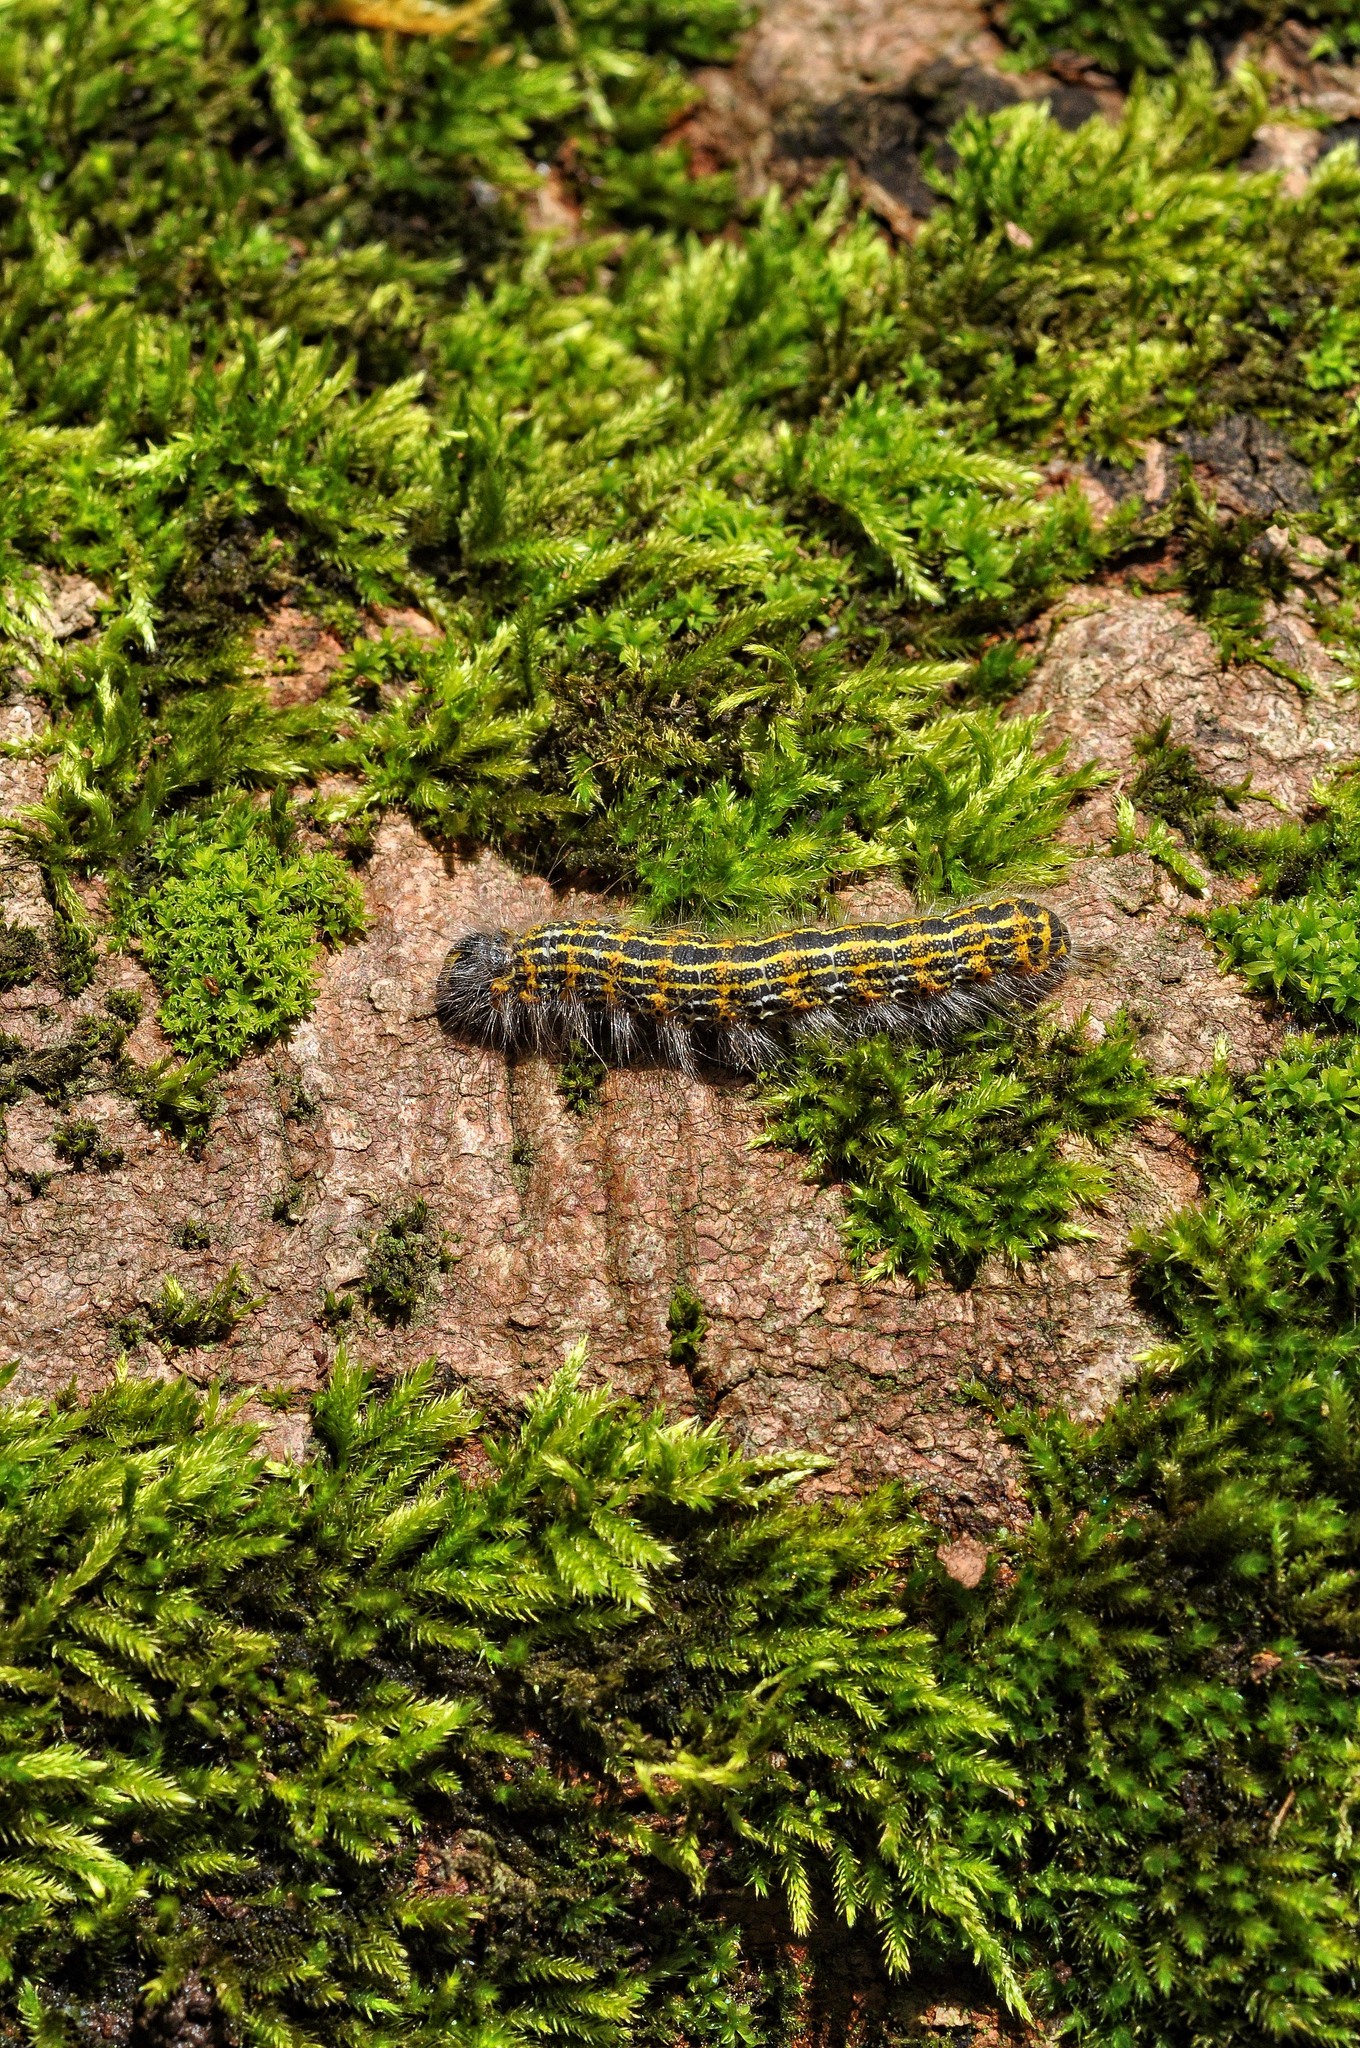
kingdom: Animalia
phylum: Arthropoda
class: Insecta
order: Lepidoptera
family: Notodontidae
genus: Phalera
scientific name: Phalera bucephala
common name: Buff-tip
